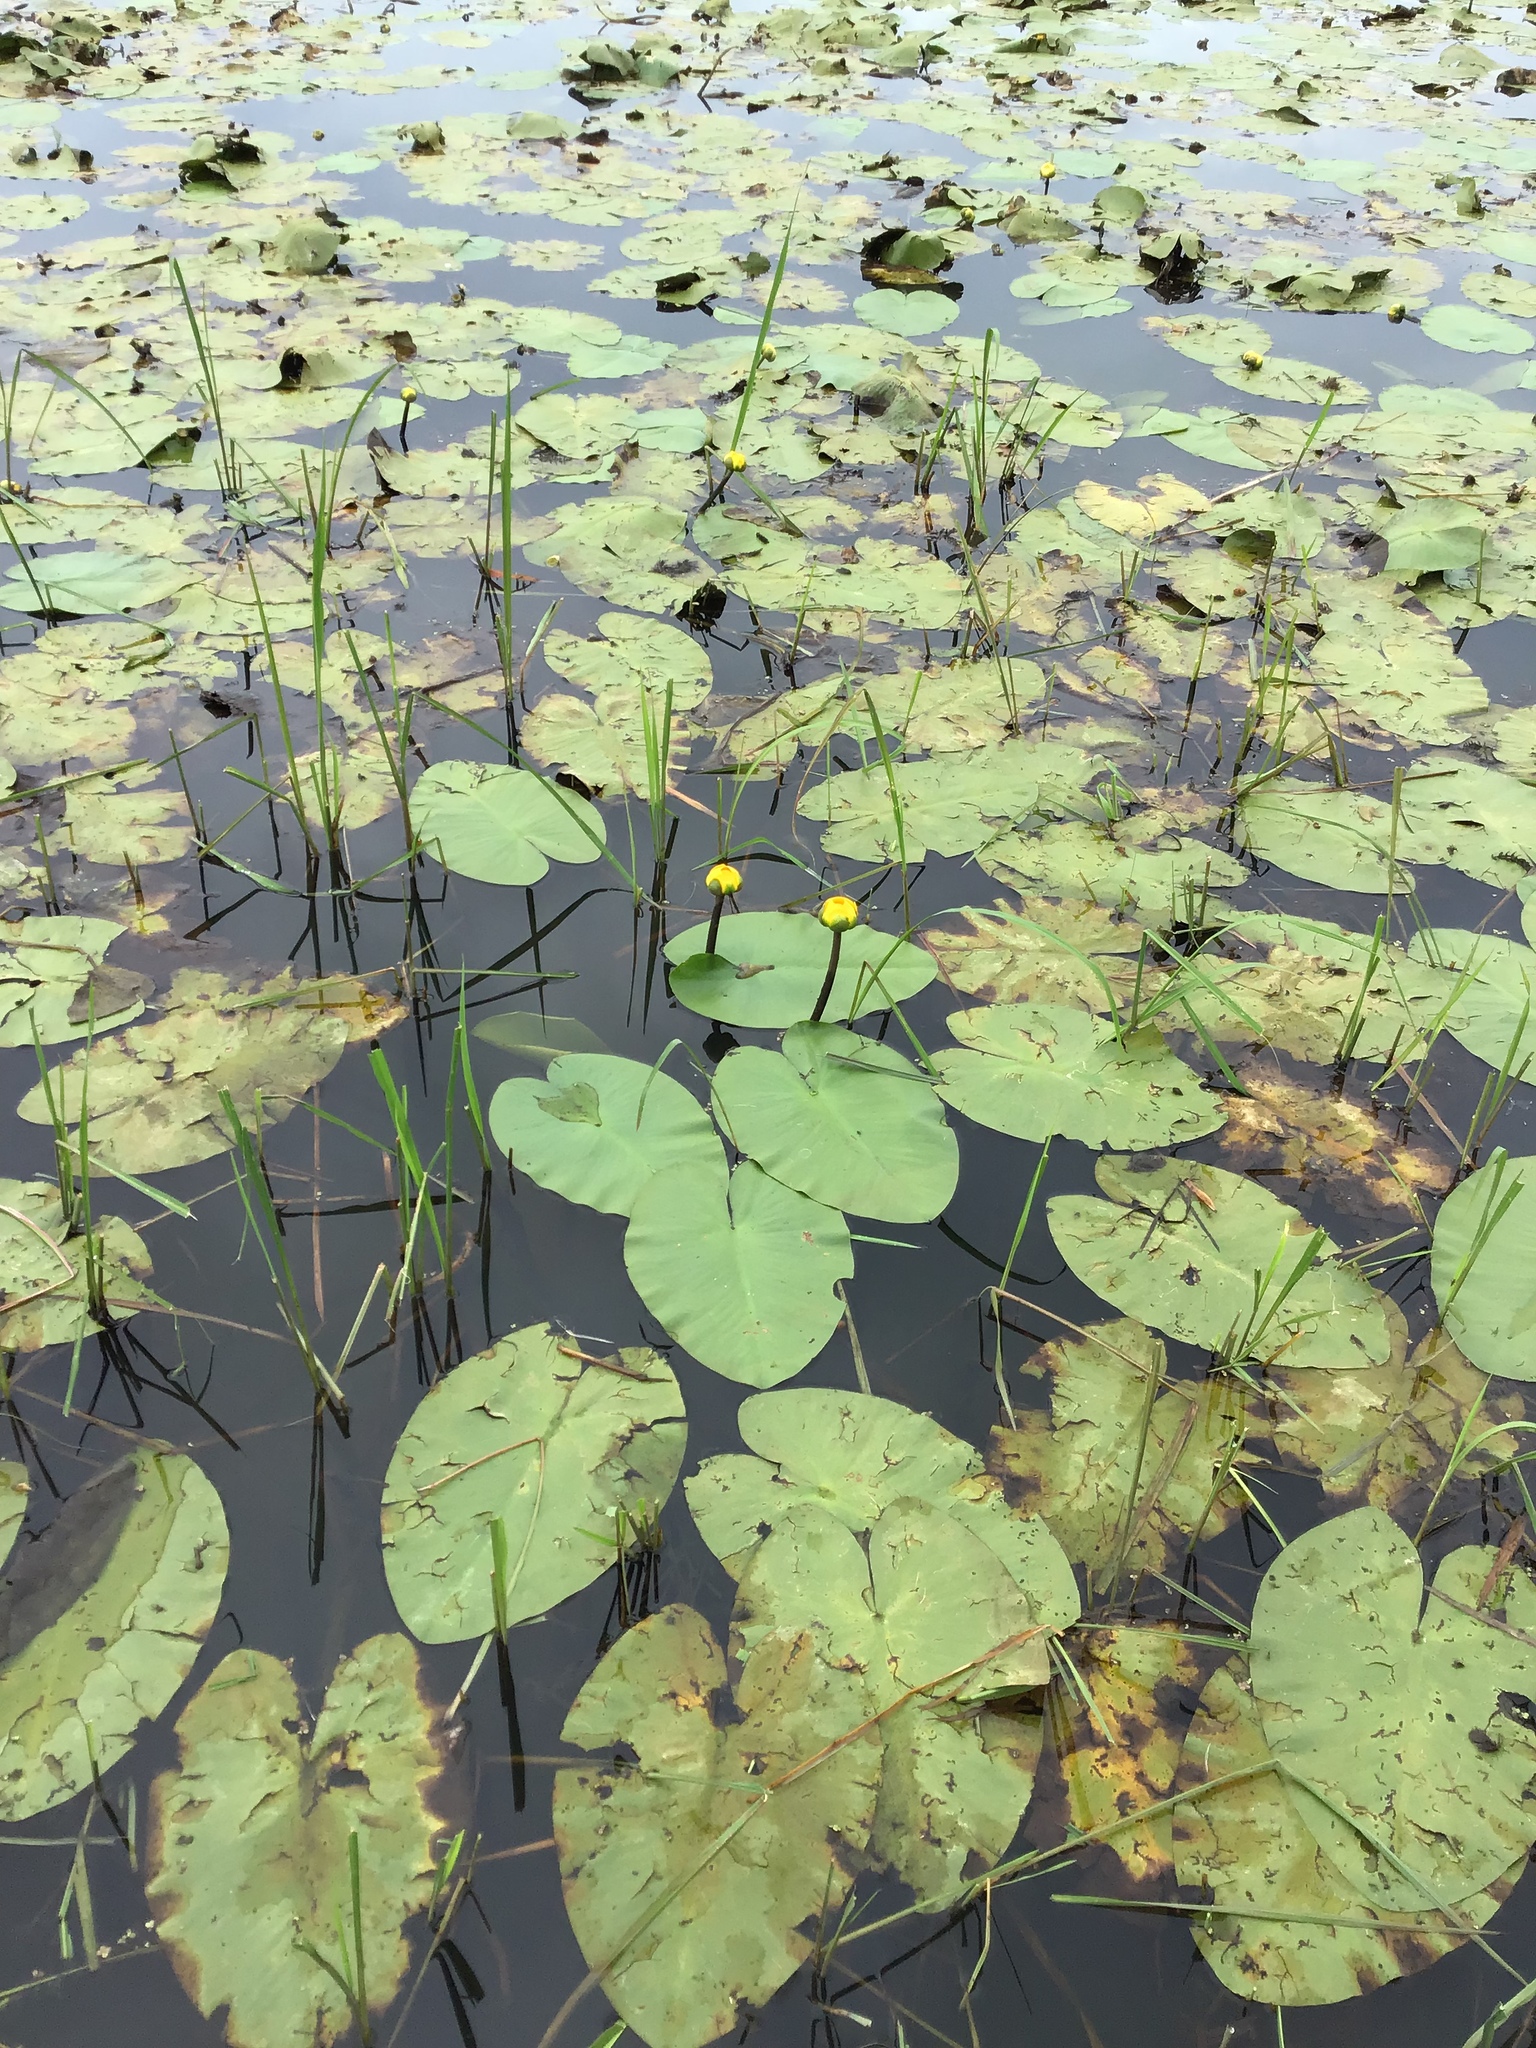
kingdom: Plantae
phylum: Tracheophyta
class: Magnoliopsida
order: Nymphaeales
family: Nymphaeaceae
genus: Nuphar
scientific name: Nuphar variegata
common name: Beaver-root
